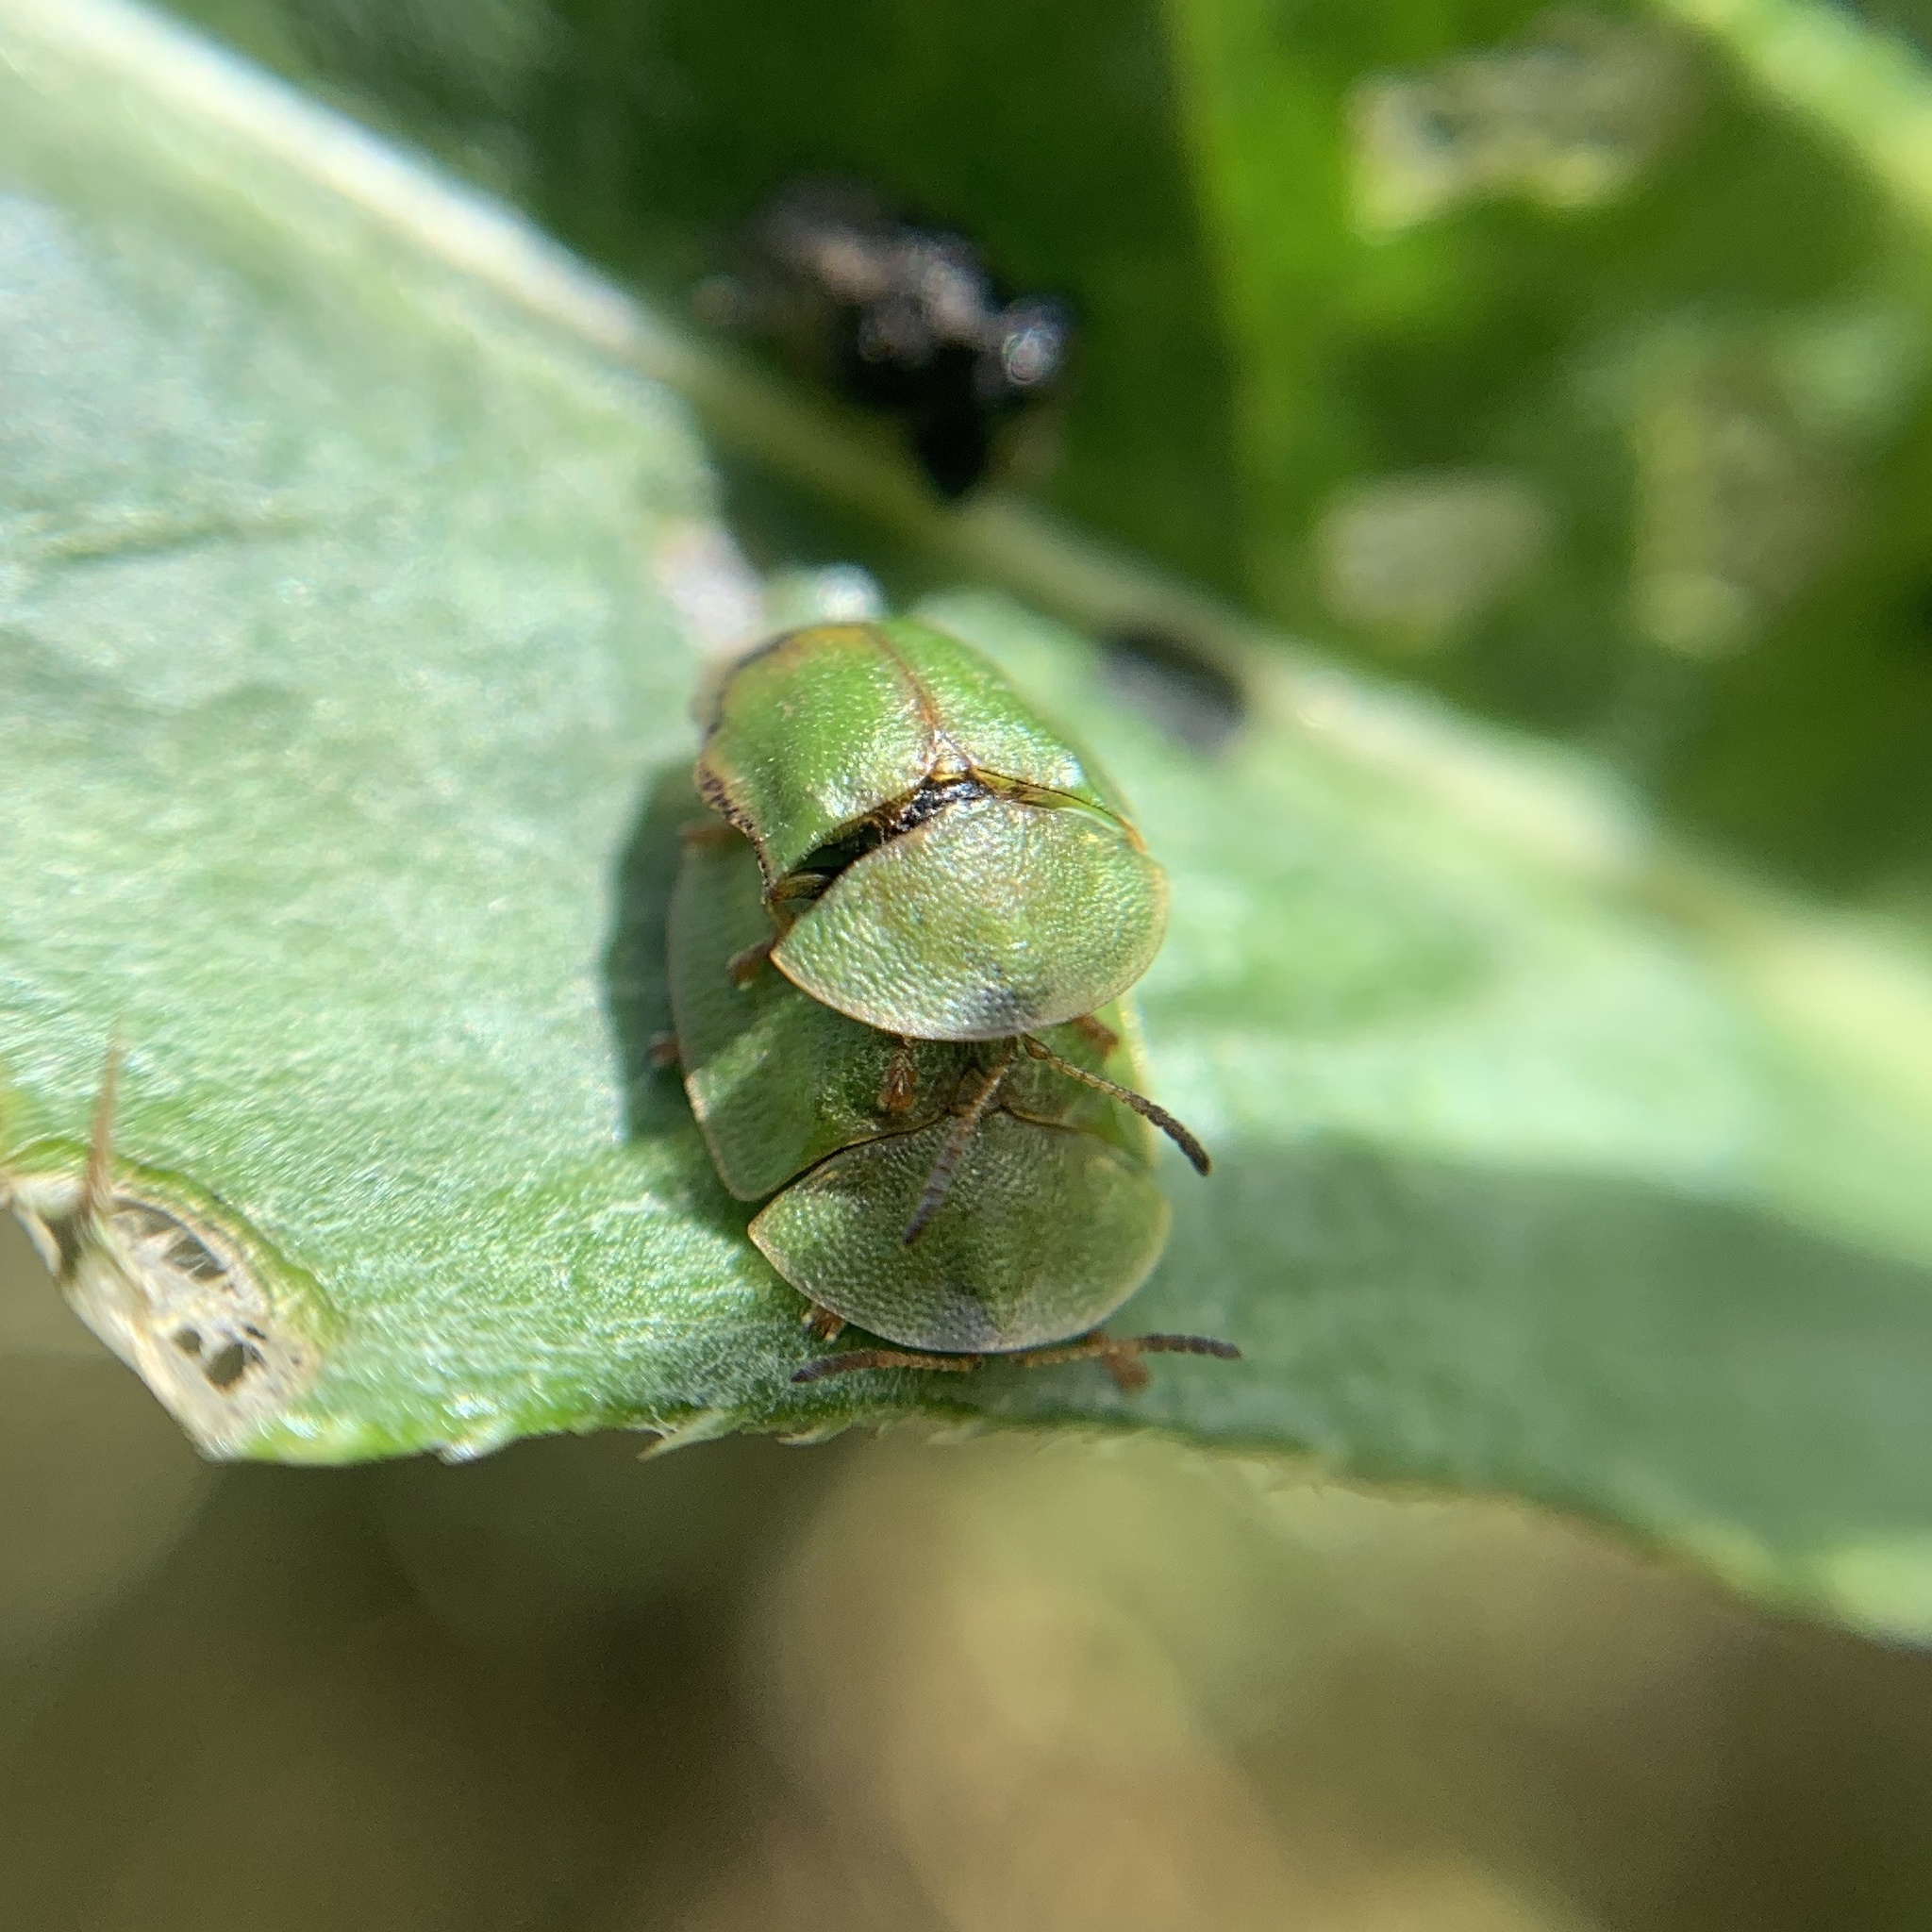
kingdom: Animalia
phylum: Arthropoda
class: Insecta
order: Coleoptera
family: Chrysomelidae
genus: Cassida
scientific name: Cassida rubiginosa
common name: Thistle tortoise beetle
